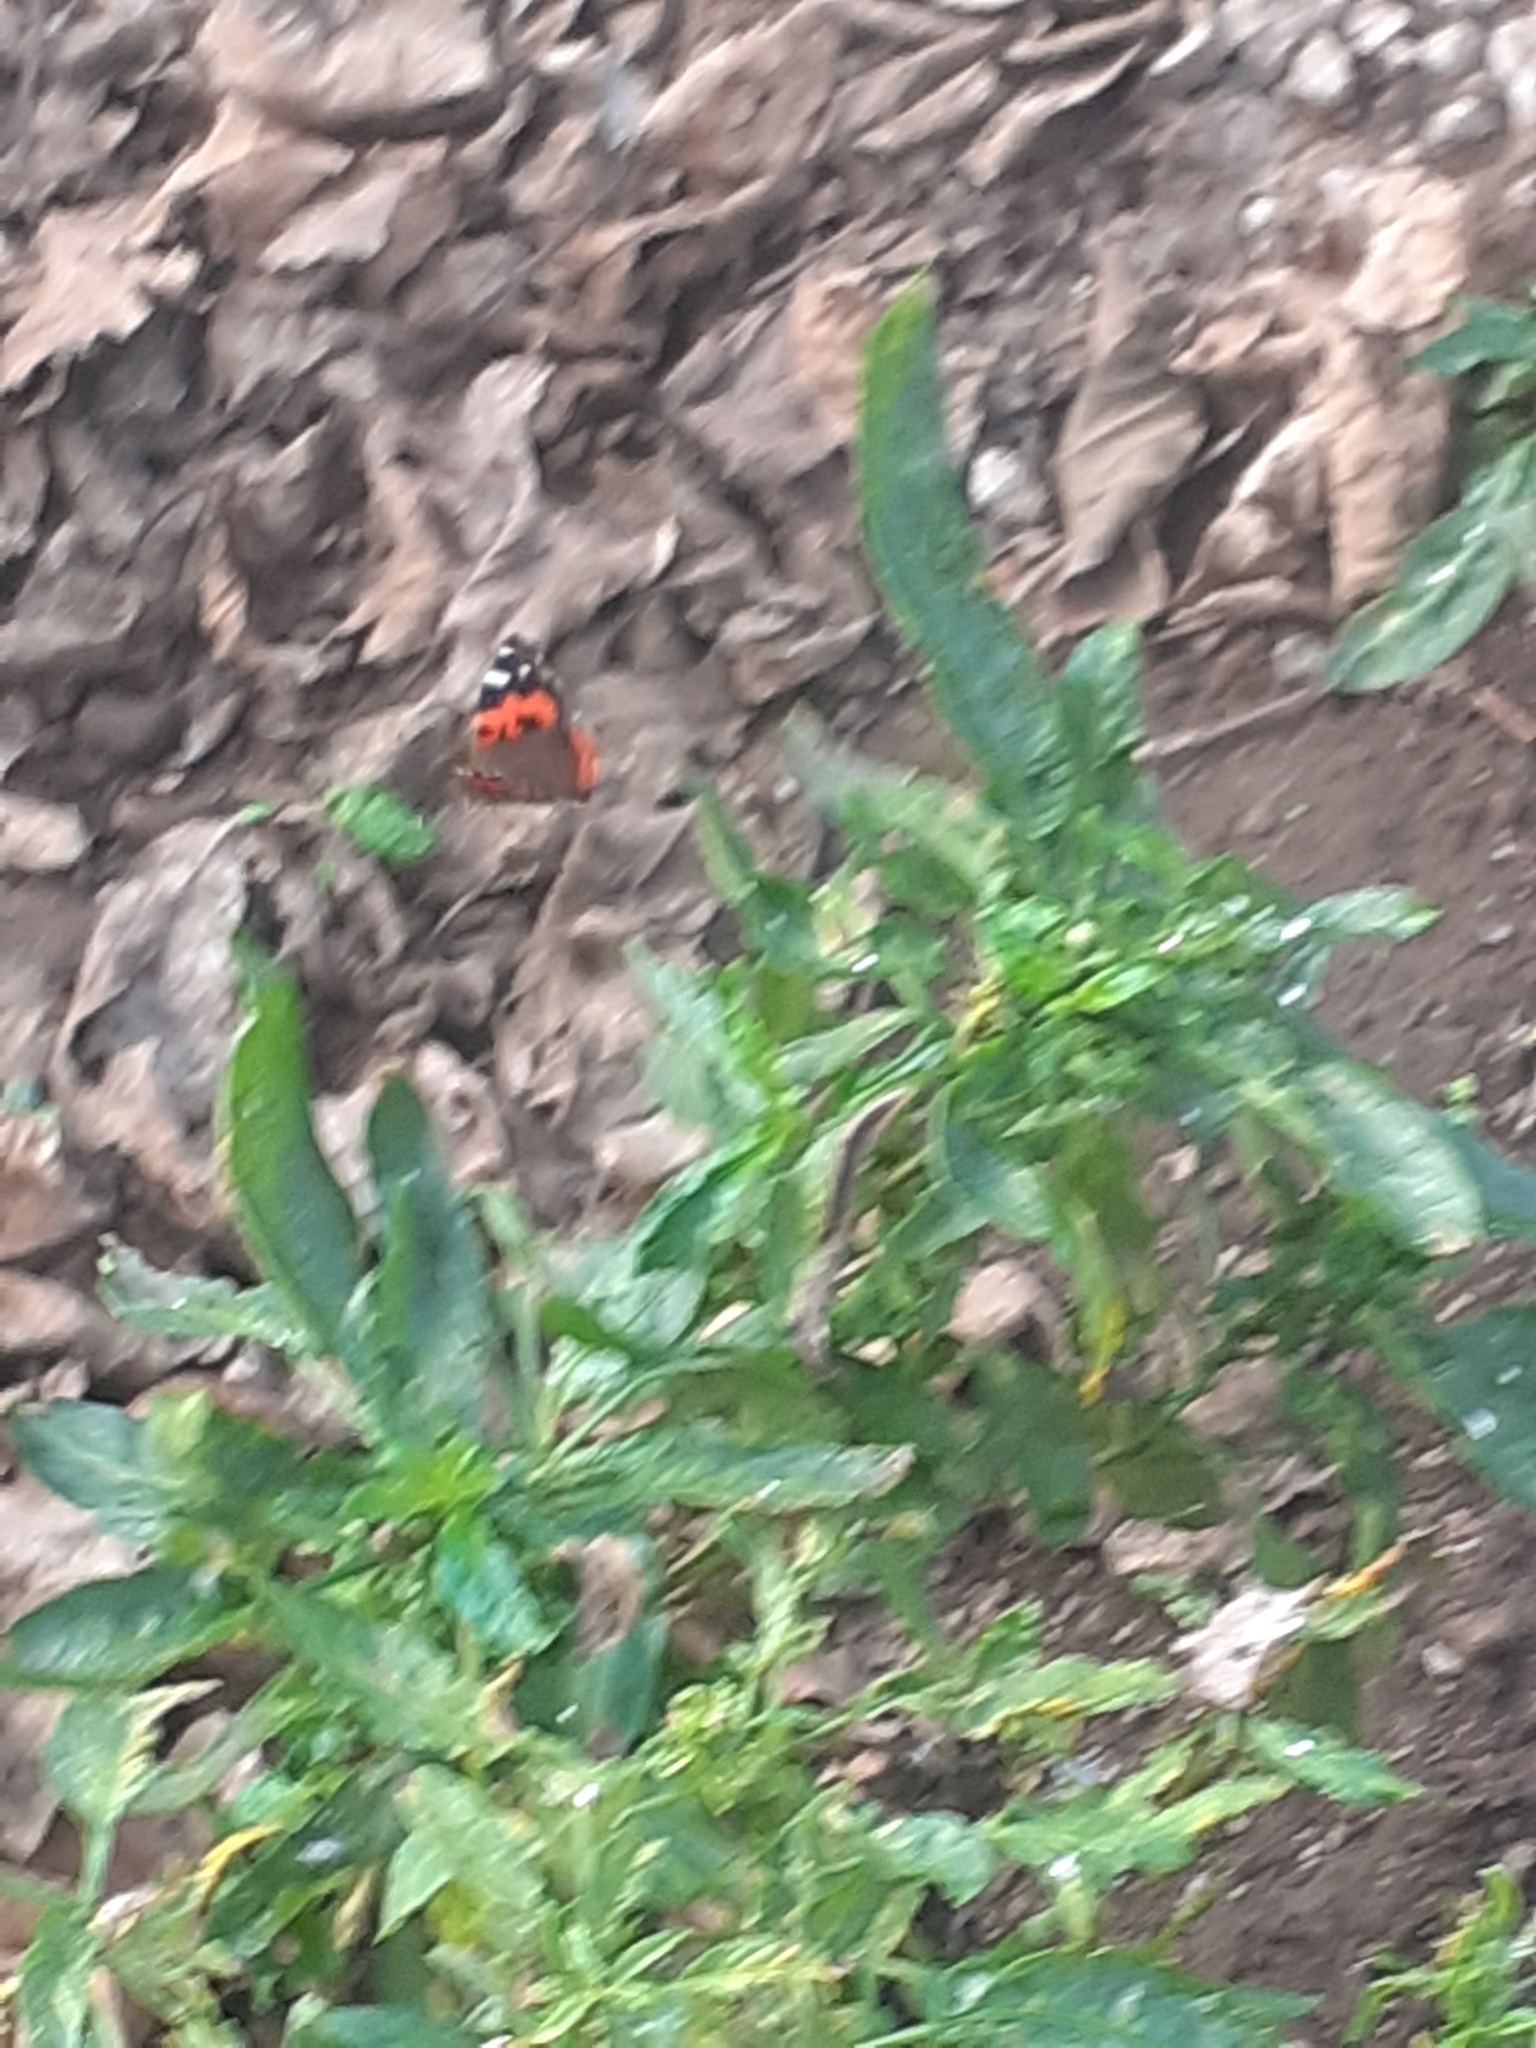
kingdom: Animalia
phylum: Arthropoda
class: Insecta
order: Lepidoptera
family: Nymphalidae
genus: Vanessa
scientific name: Vanessa vulcania
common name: Canary red admiral
